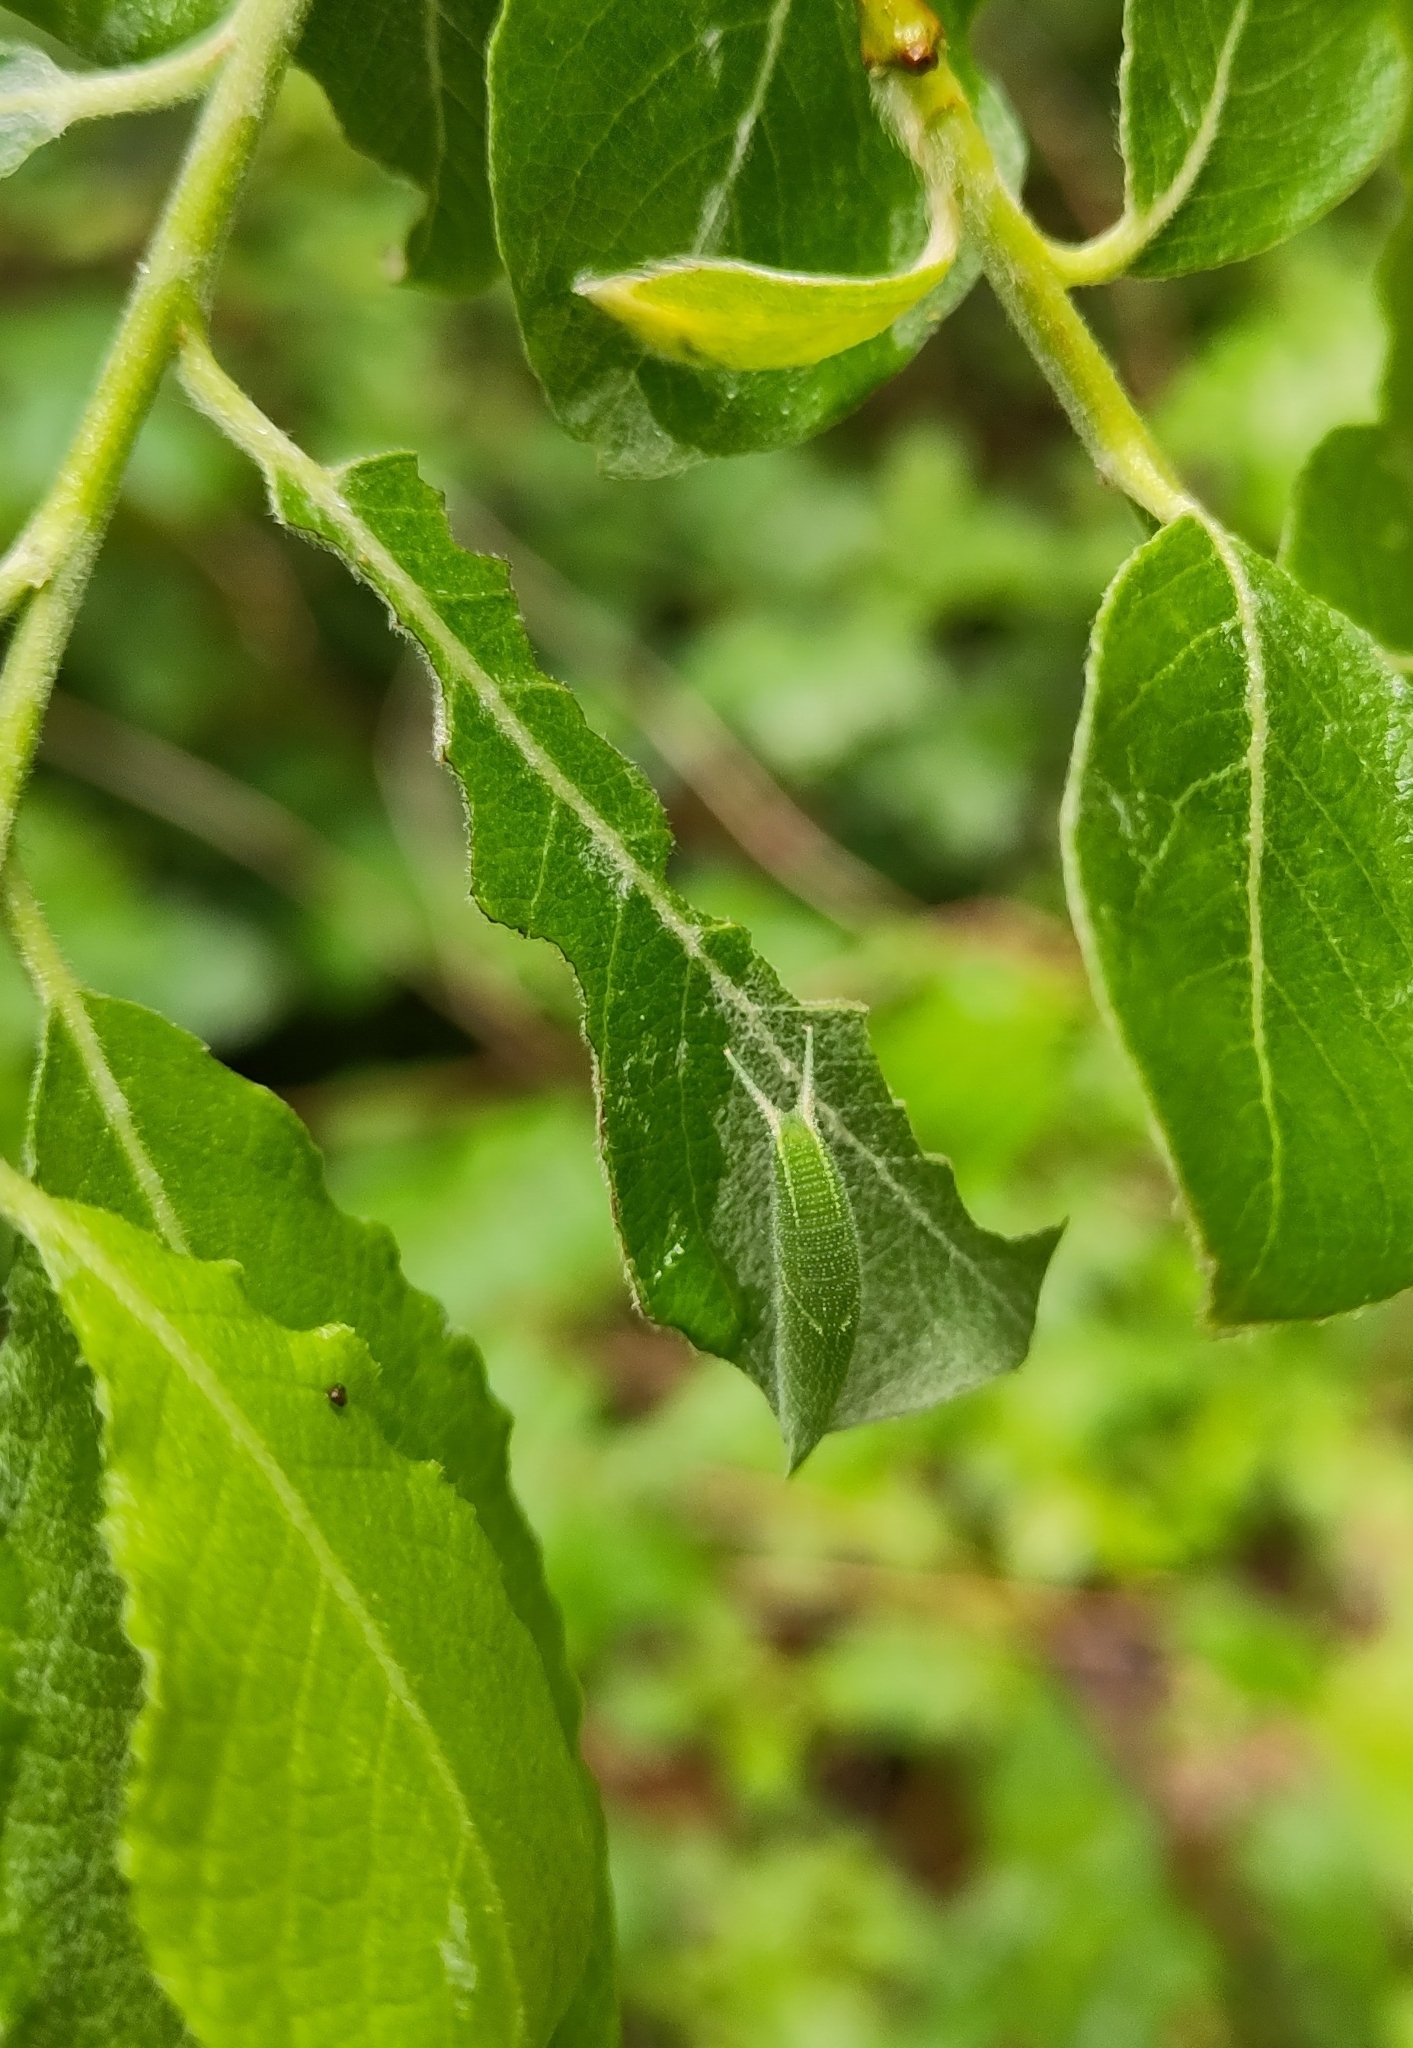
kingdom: Animalia
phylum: Arthropoda
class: Insecta
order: Lepidoptera
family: Nymphalidae
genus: Apatura
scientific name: Apatura iris
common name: Purple emperor
